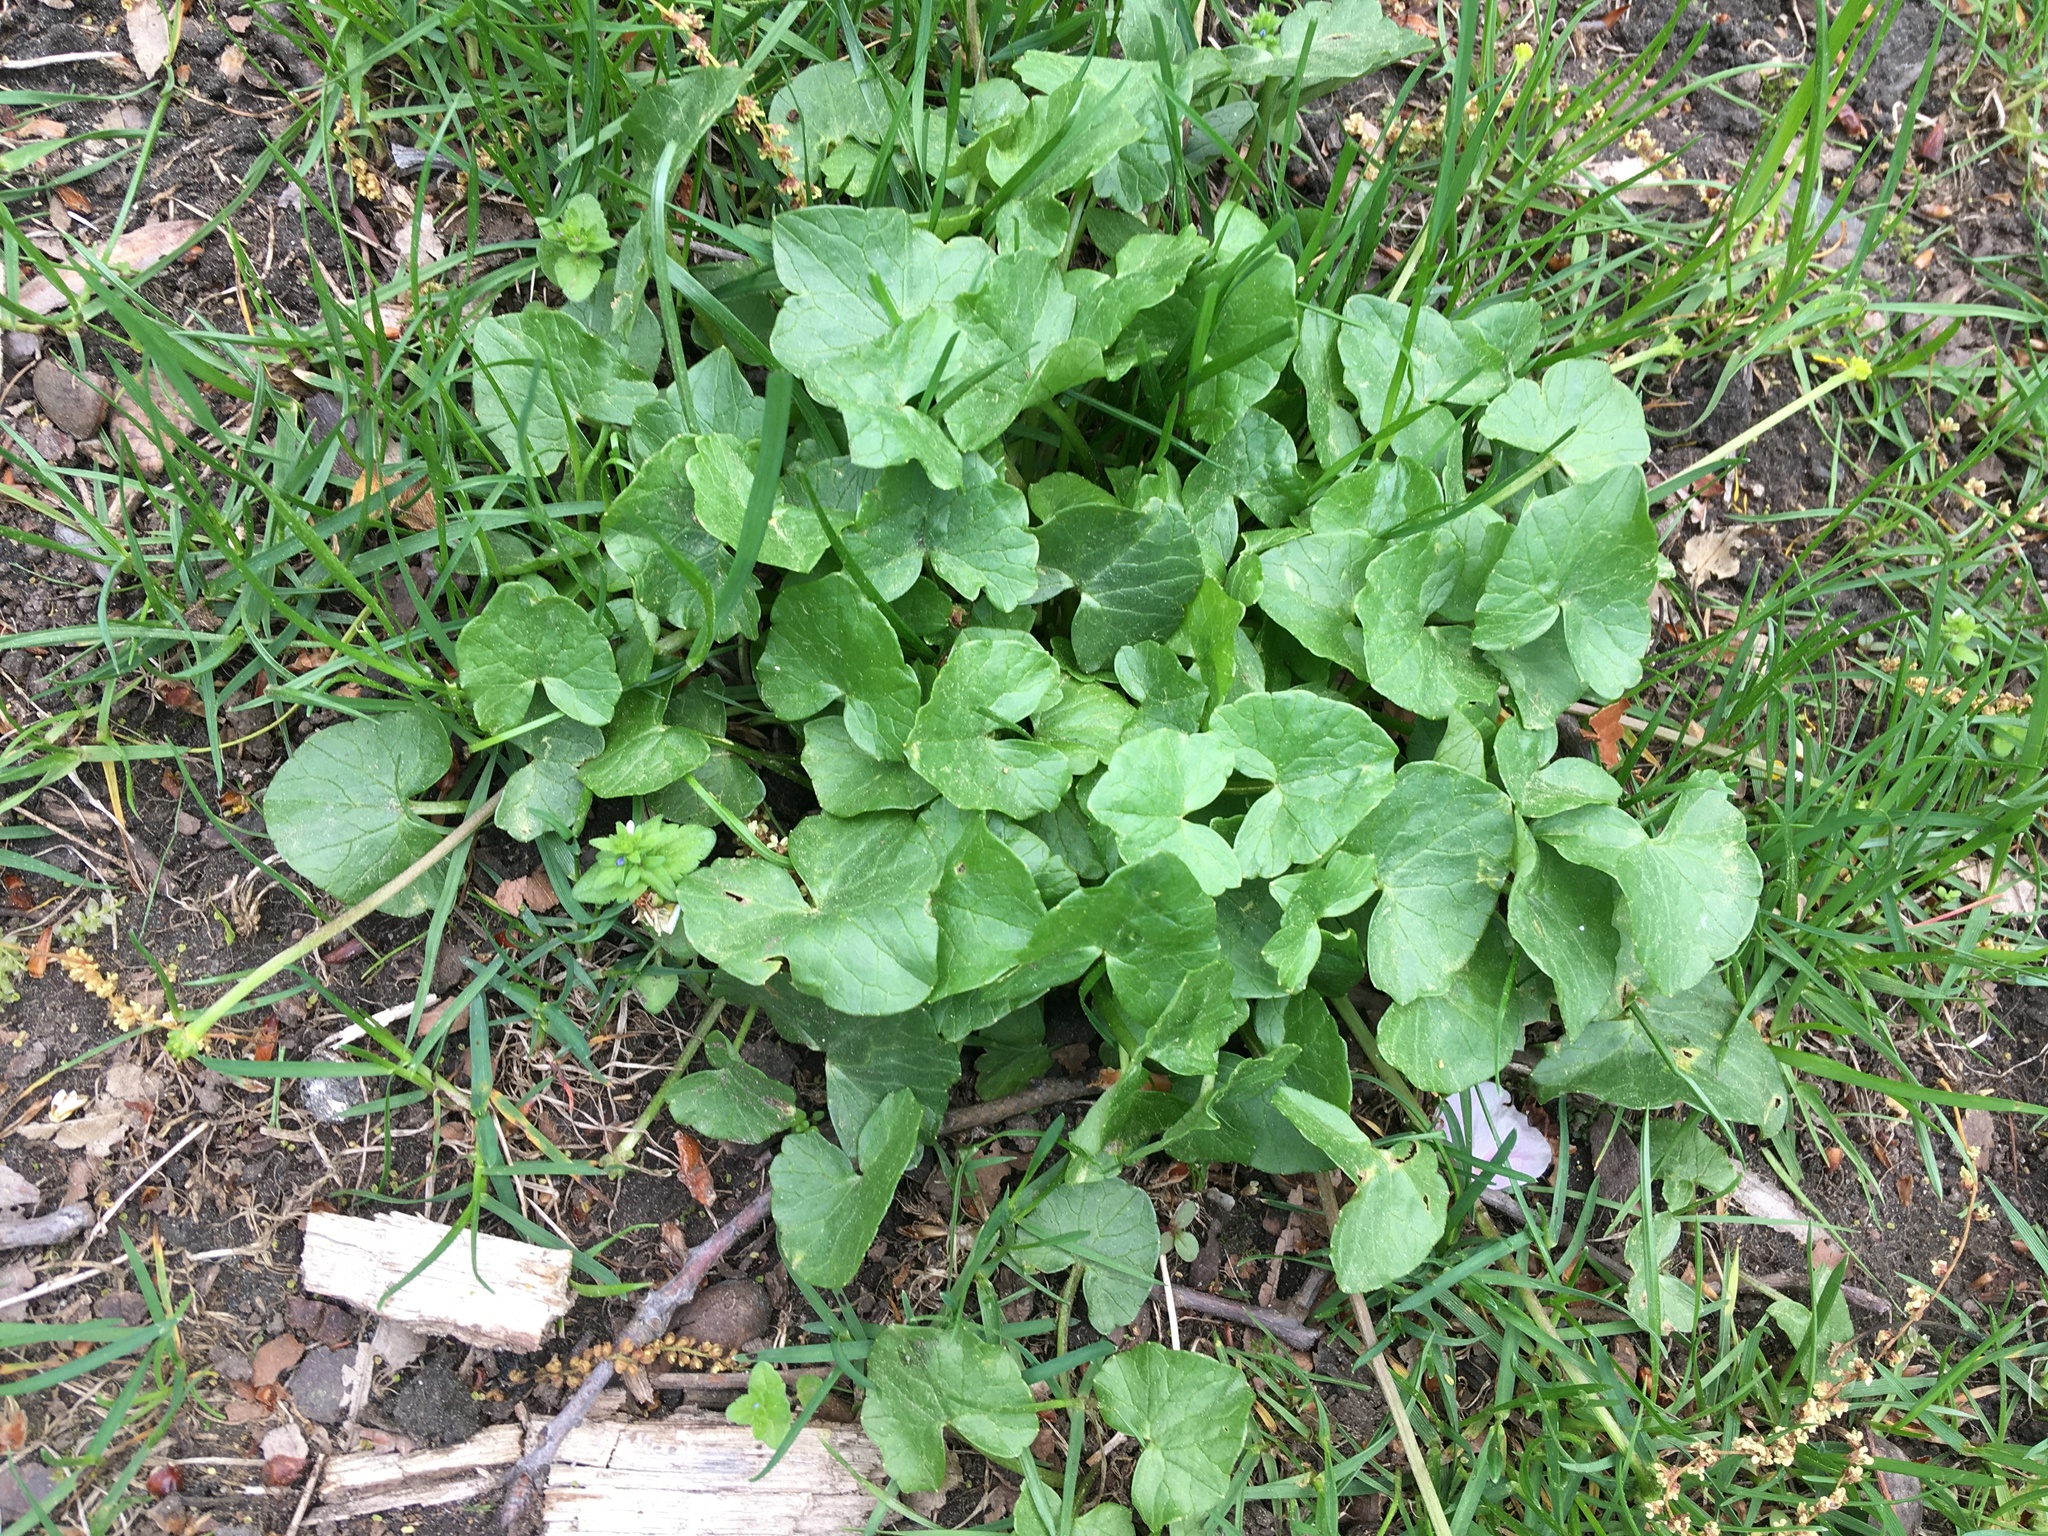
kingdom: Plantae
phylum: Tracheophyta
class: Magnoliopsida
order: Ranunculales
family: Ranunculaceae
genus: Ficaria
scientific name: Ficaria verna
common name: Lesser celandine
